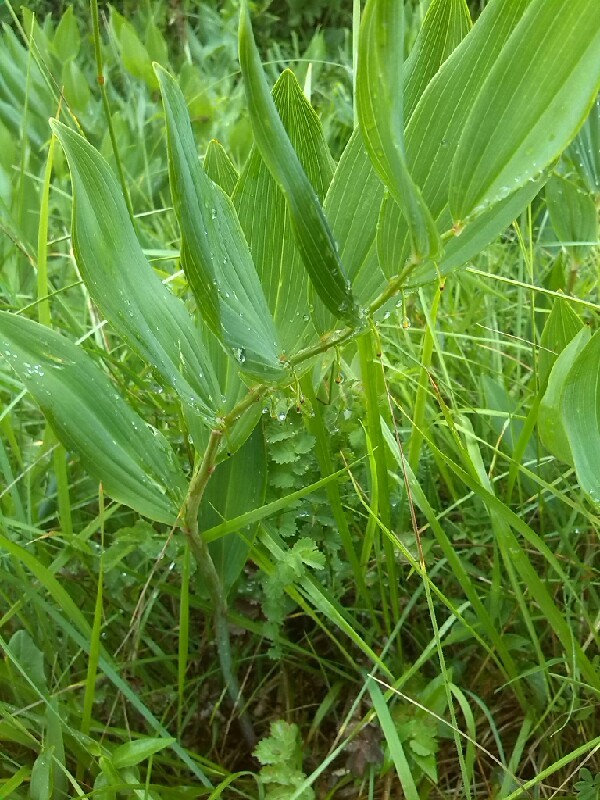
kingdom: Plantae
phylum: Tracheophyta
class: Liliopsida
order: Asparagales
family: Asparagaceae
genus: Polygonatum
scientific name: Polygonatum multiflorum
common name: Solomon's-seal
